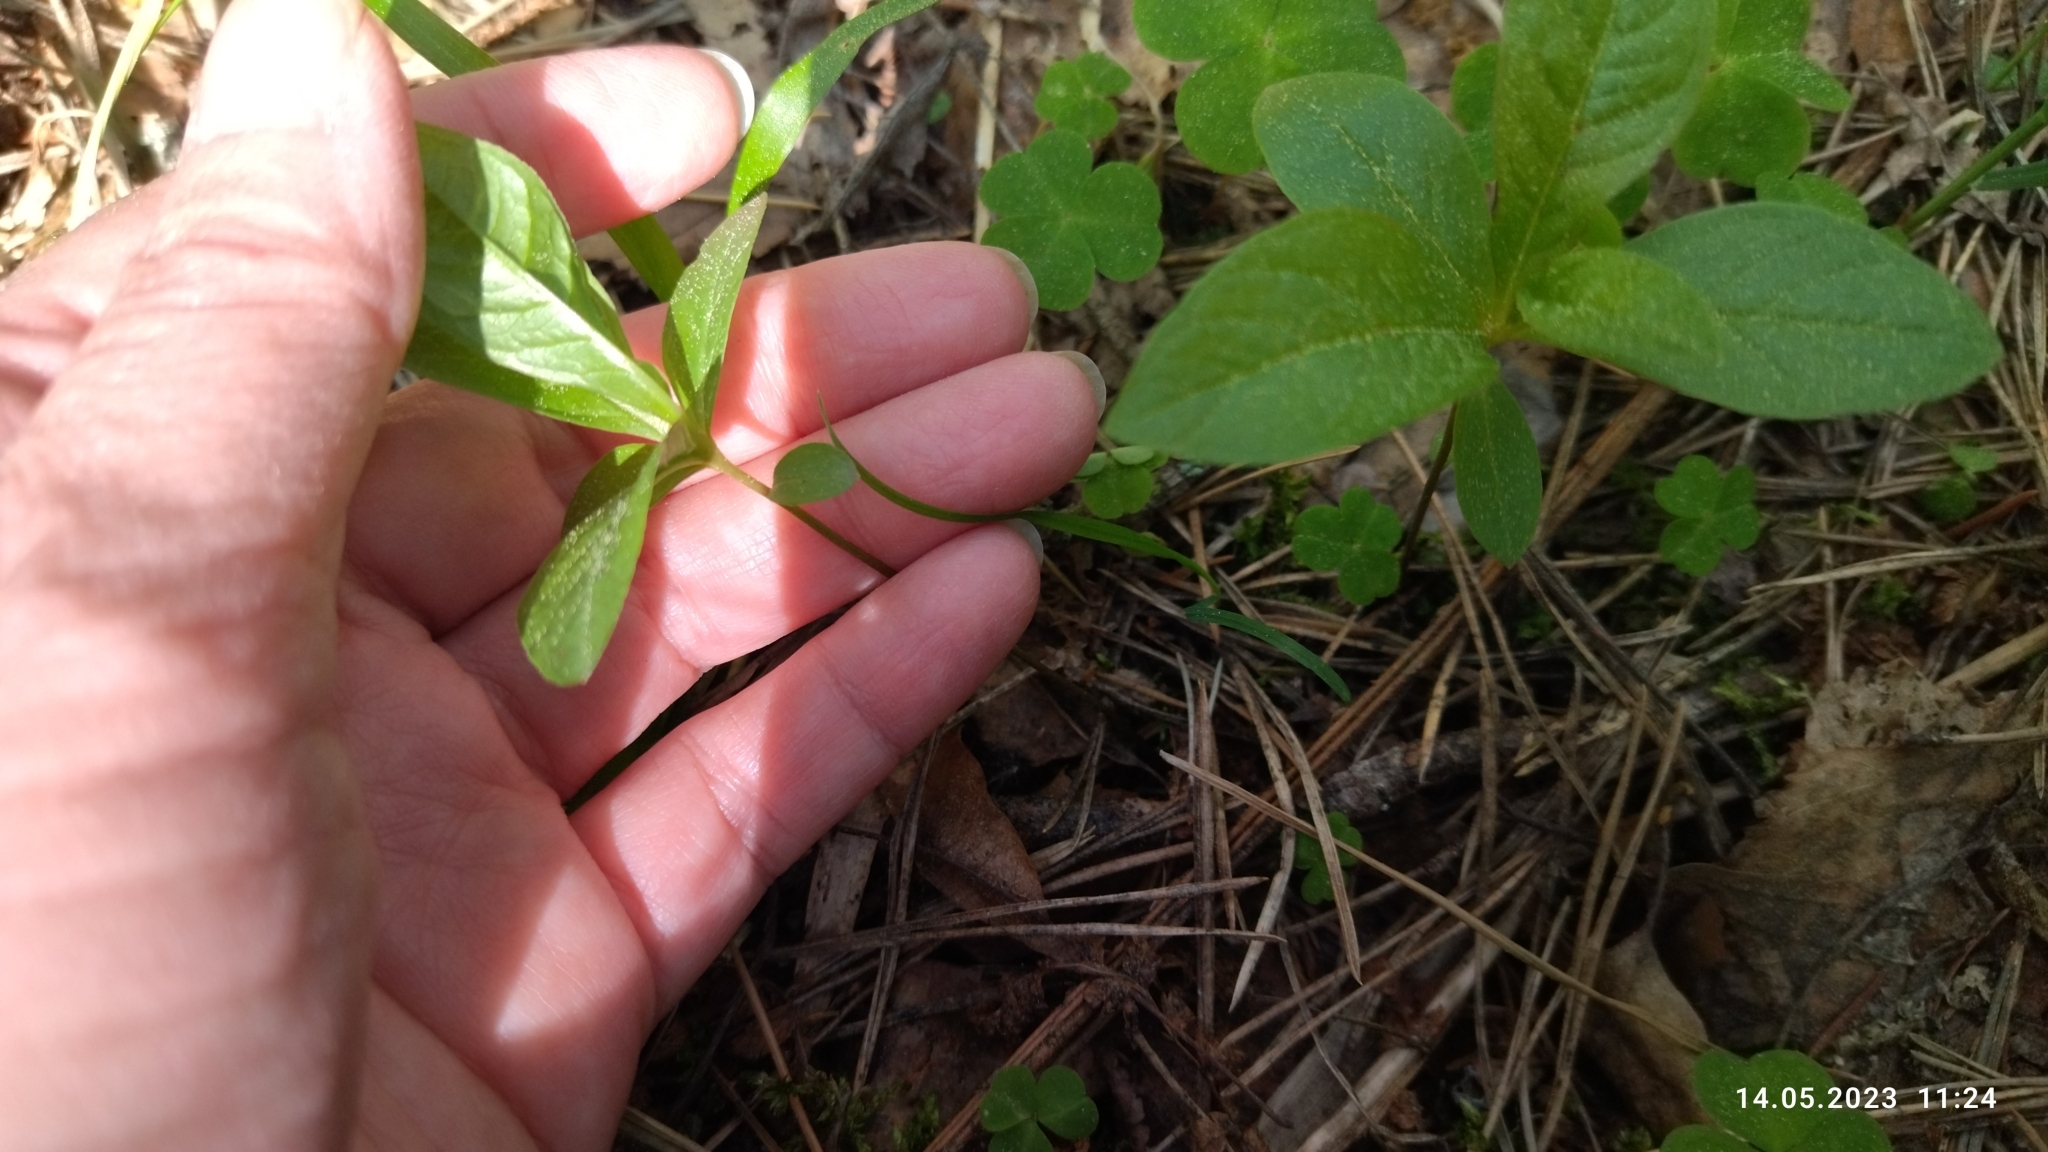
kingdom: Plantae
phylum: Tracheophyta
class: Magnoliopsida
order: Ericales
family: Primulaceae
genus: Lysimachia
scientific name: Lysimachia europaea
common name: Arctic starflower
